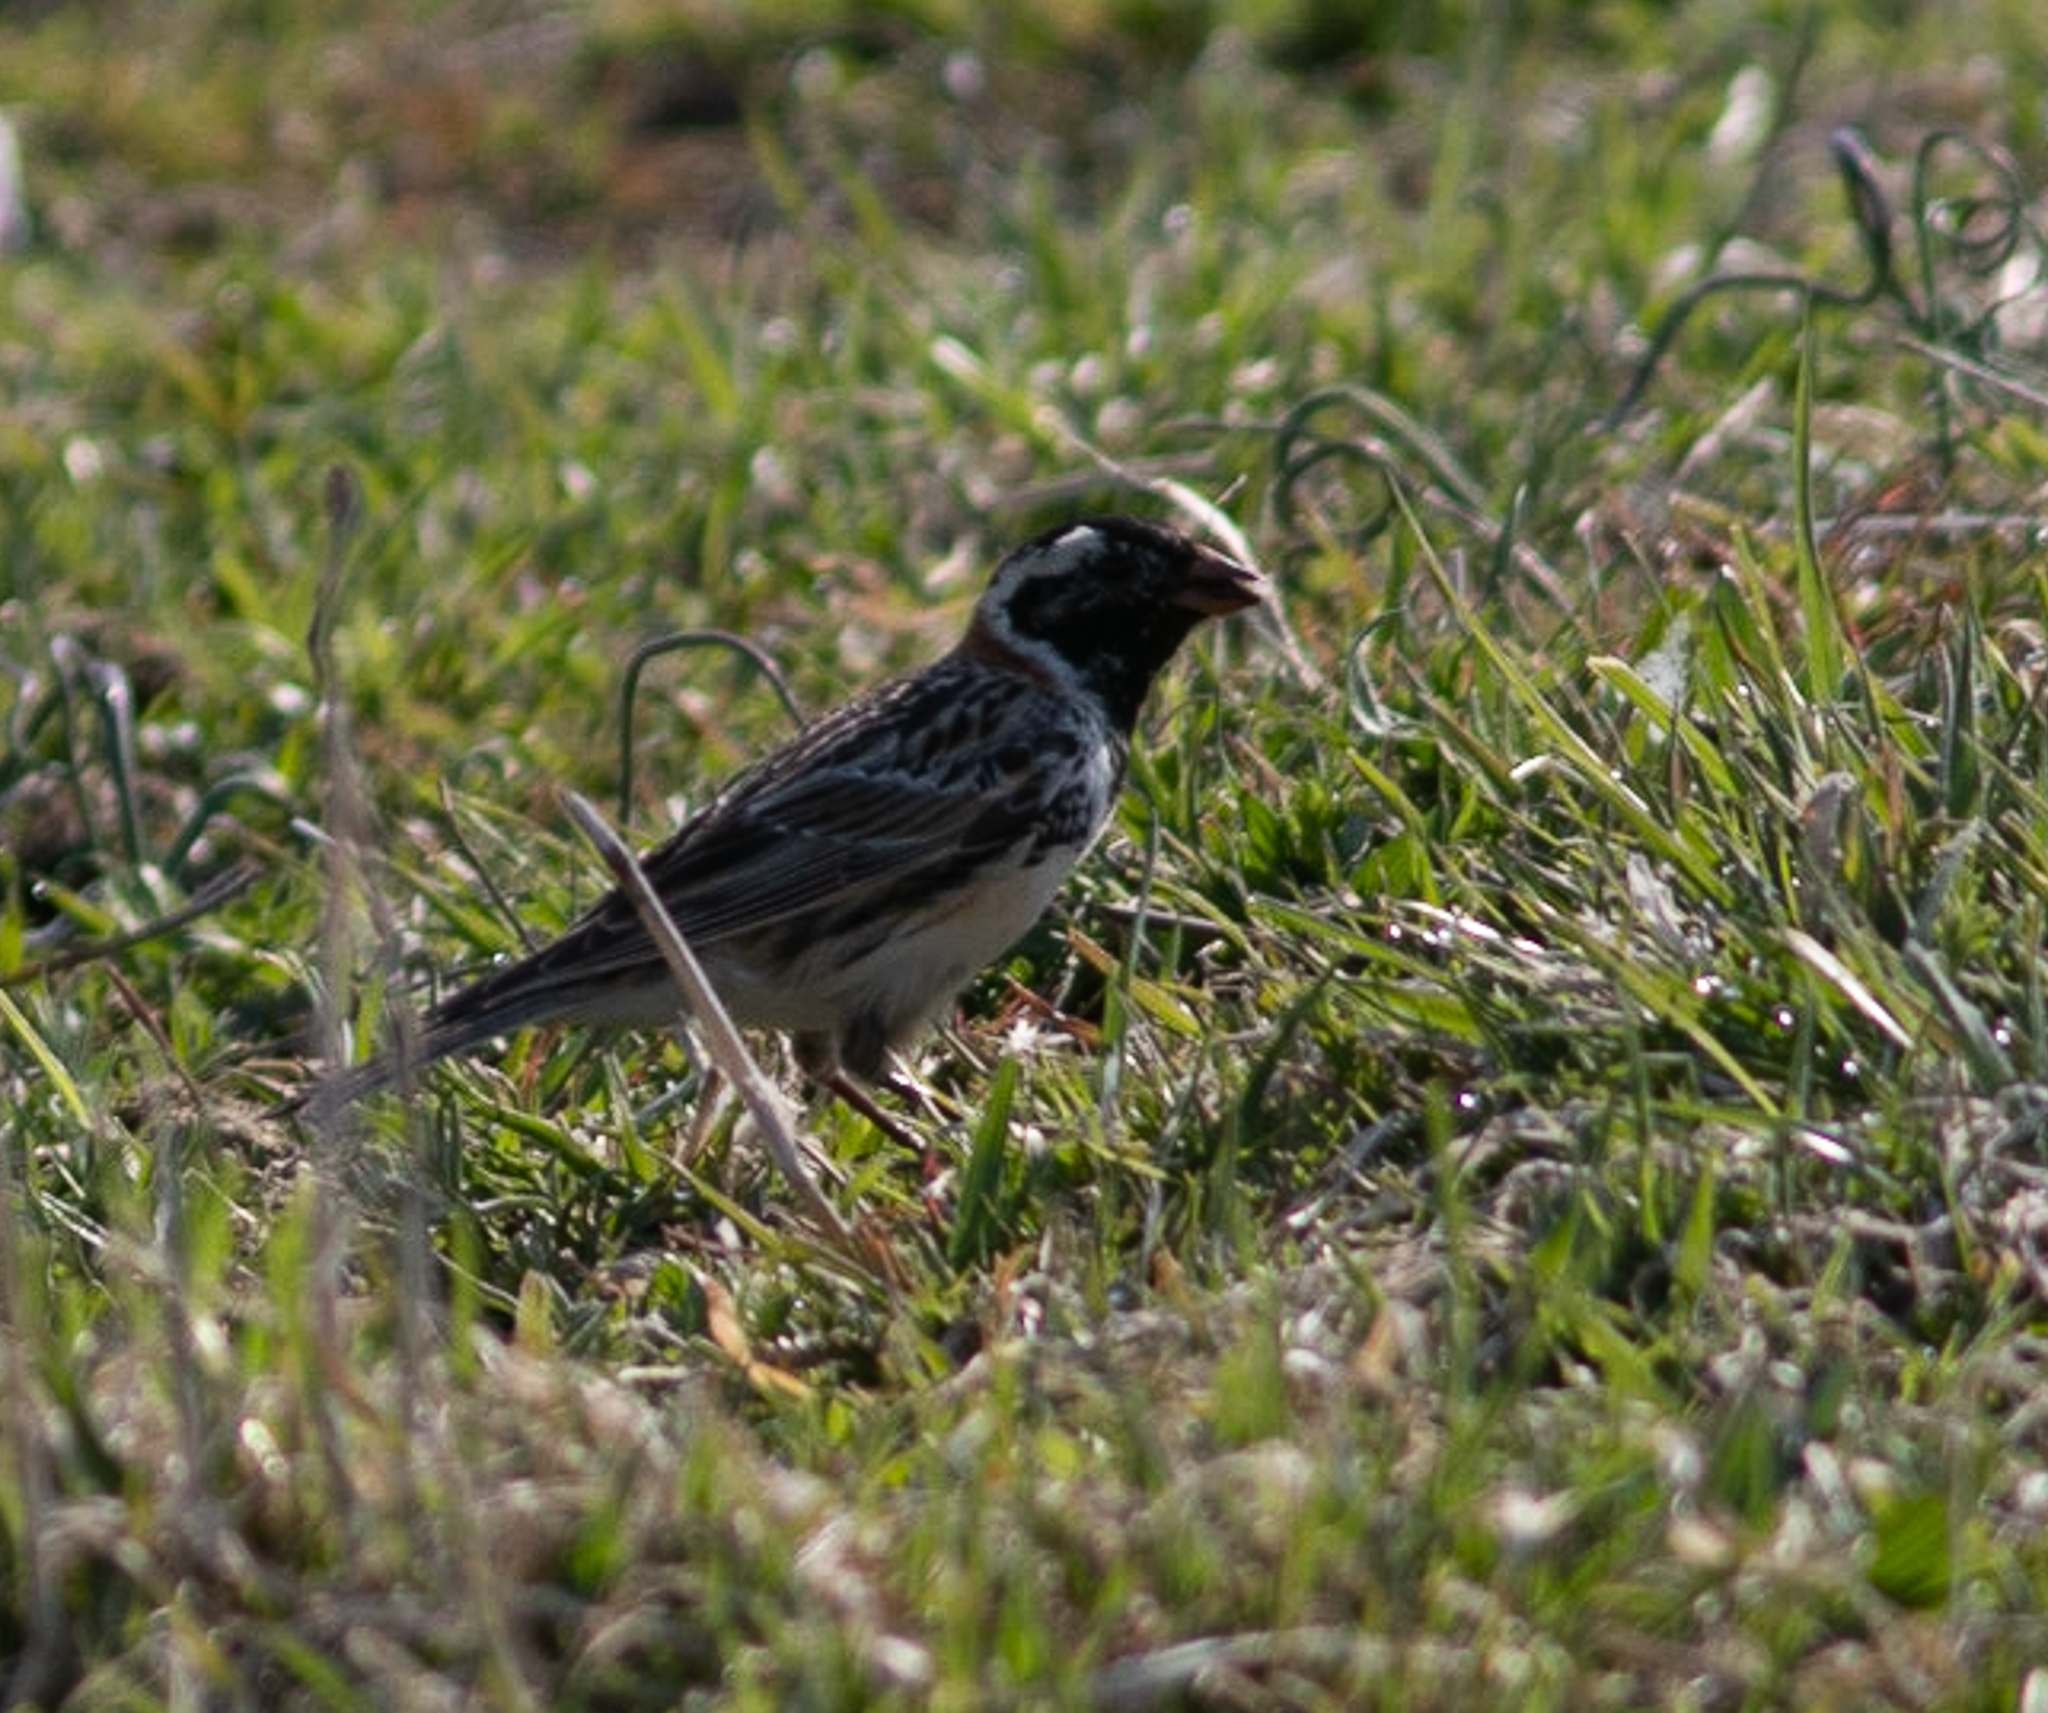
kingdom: Animalia
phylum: Chordata
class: Aves
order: Passeriformes
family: Calcariidae
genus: Calcarius
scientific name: Calcarius lapponicus
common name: Lapland longspur
